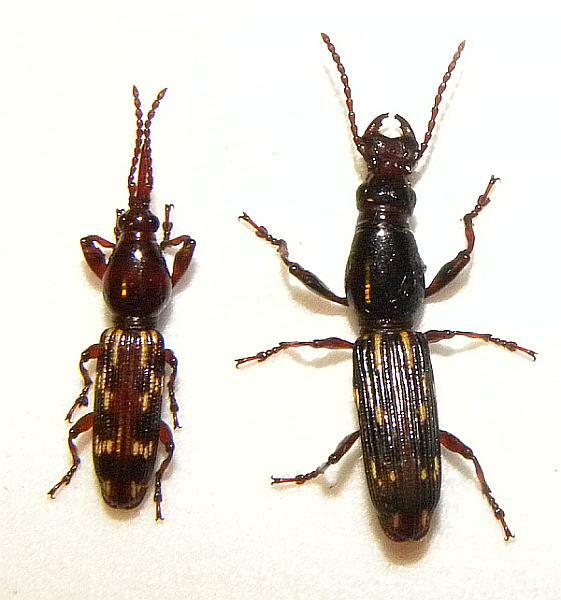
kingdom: Animalia
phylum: Arthropoda
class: Insecta
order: Coleoptera
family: Brentidae
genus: Arrenodes
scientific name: Arrenodes minutus
